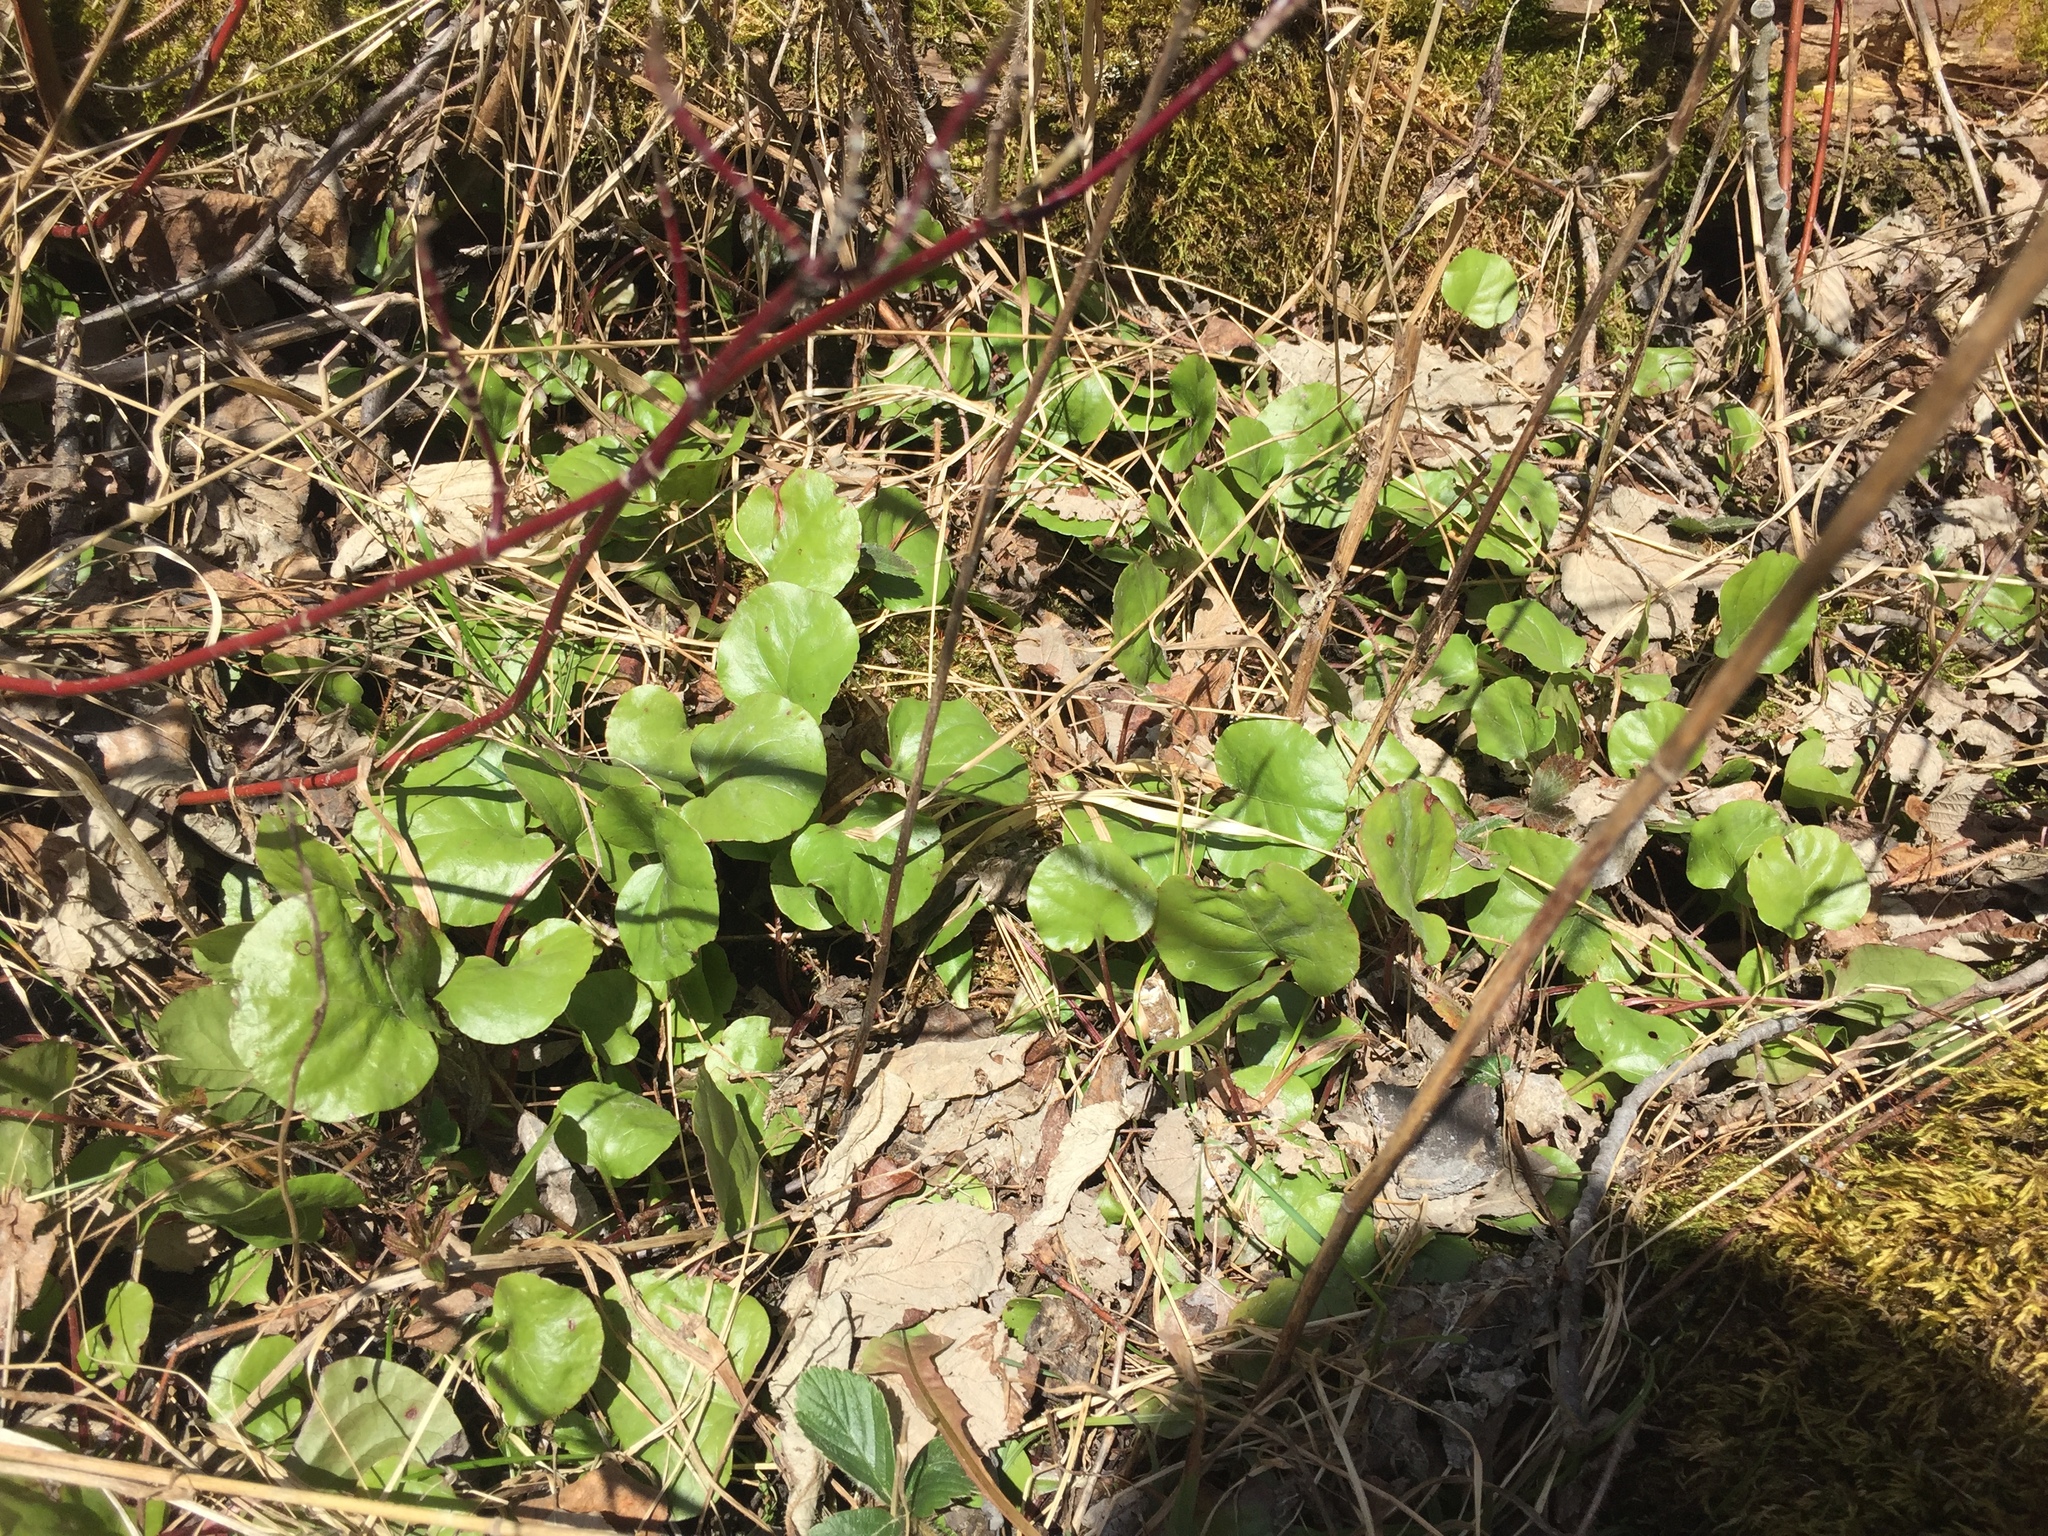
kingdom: Plantae
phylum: Tracheophyta
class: Magnoliopsida
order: Ericales
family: Ericaceae
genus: Pyrola
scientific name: Pyrola asarifolia
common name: Bog wintergreen
